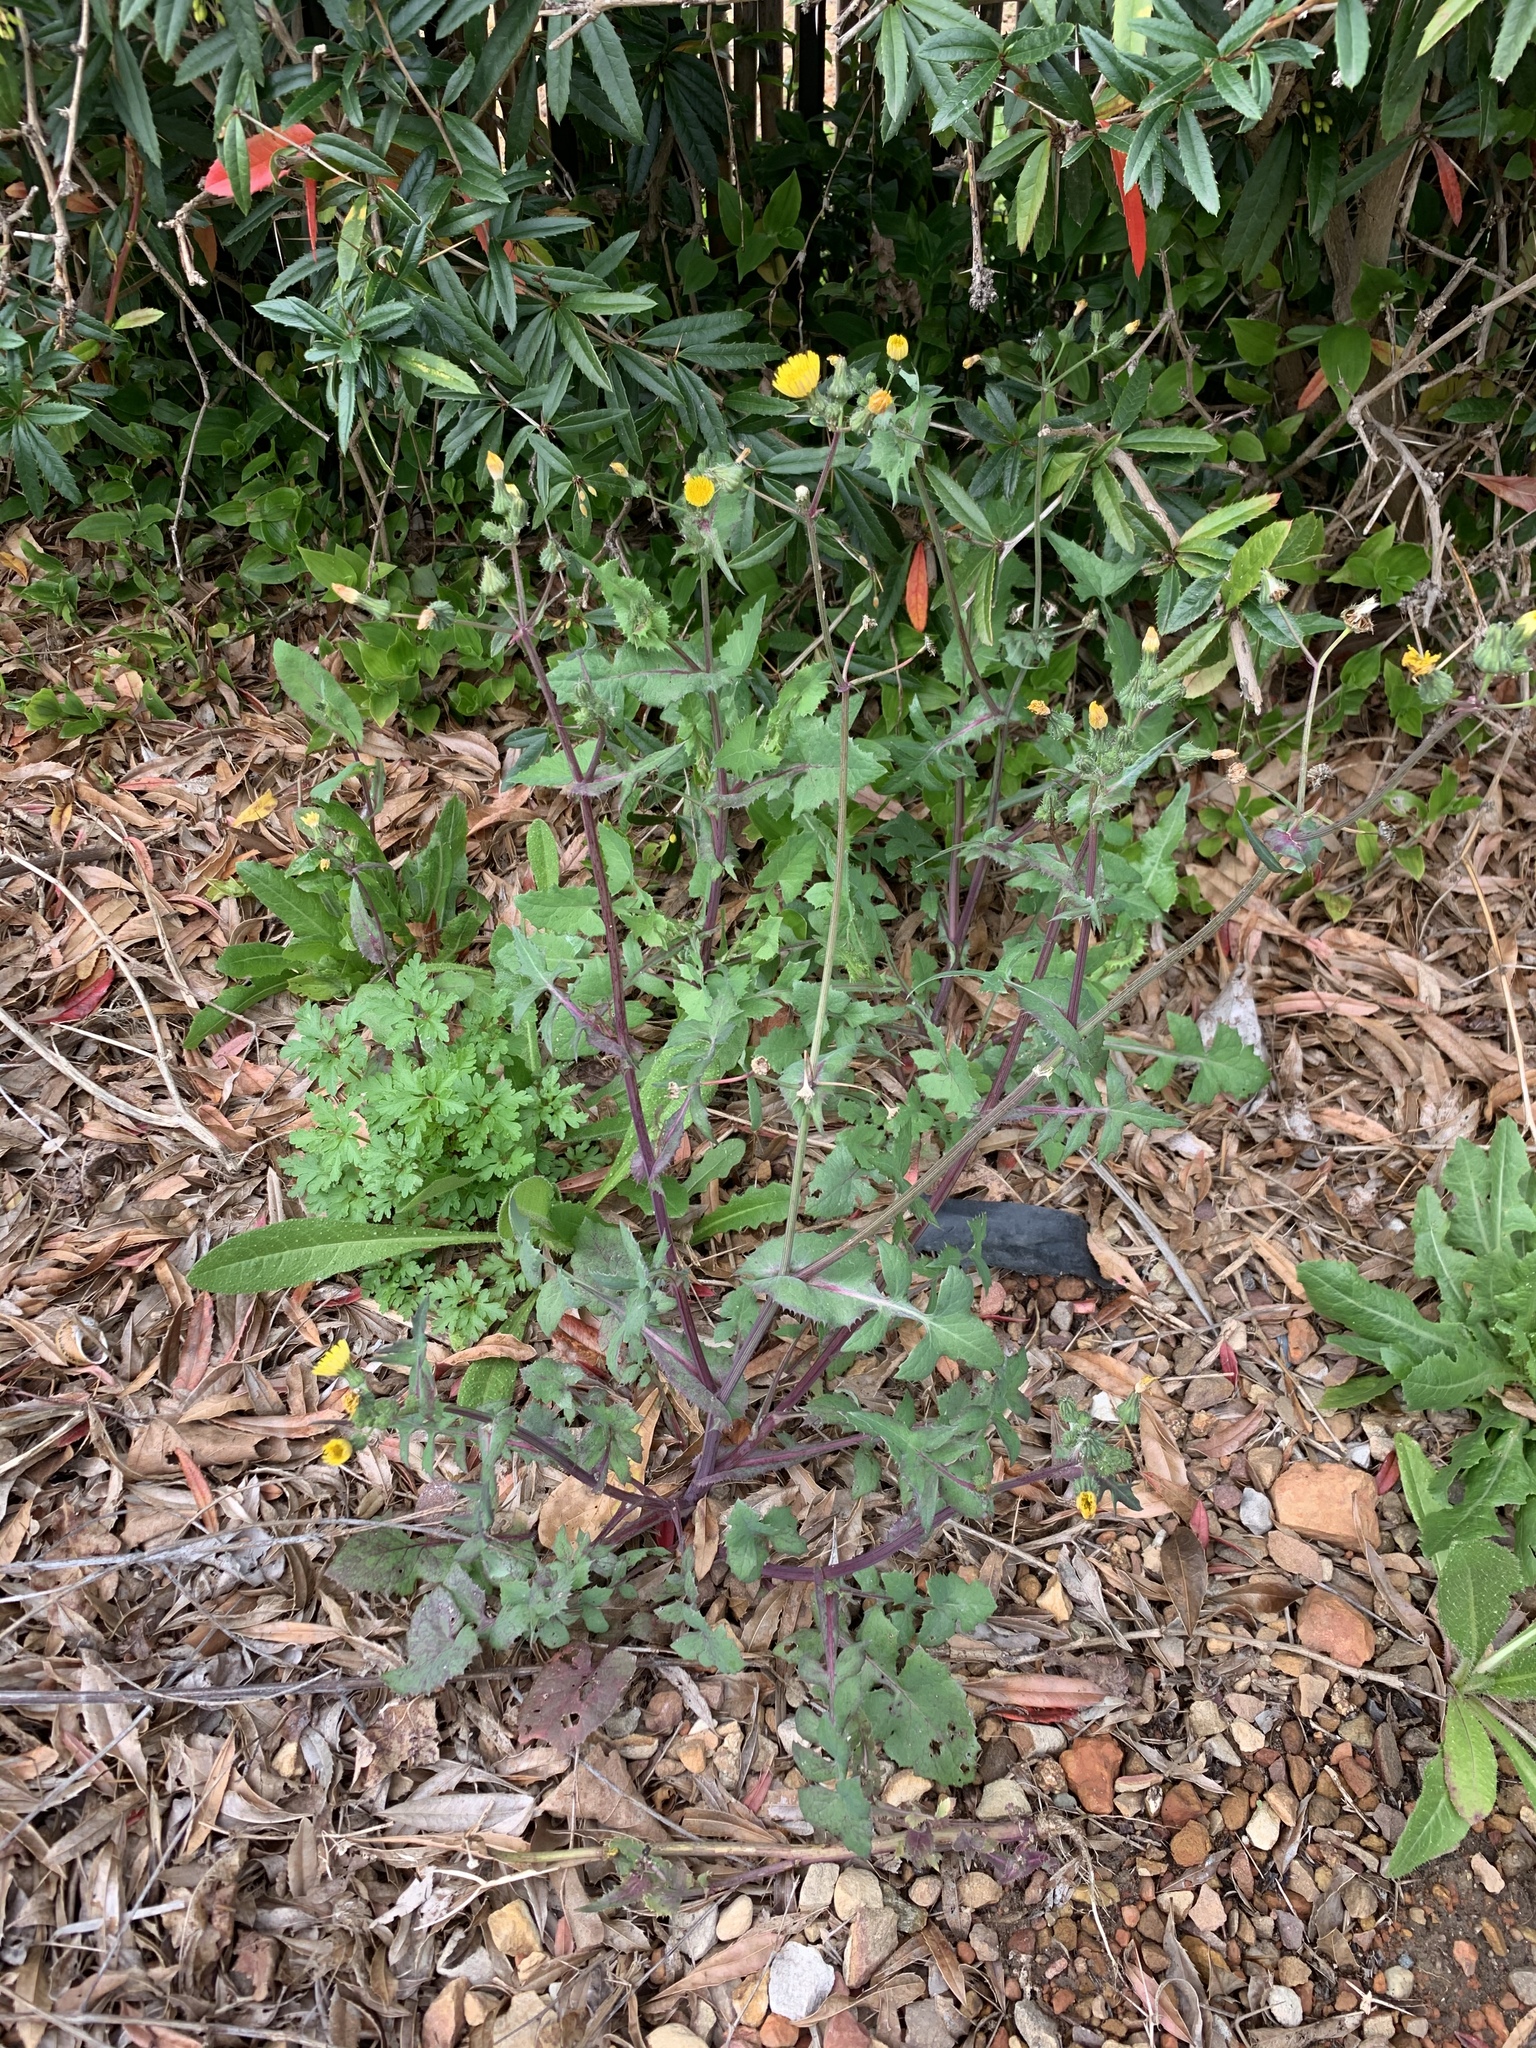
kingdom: Plantae
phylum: Tracheophyta
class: Magnoliopsida
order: Asterales
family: Asteraceae
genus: Sonchus
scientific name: Sonchus oleraceus
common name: Common sowthistle
